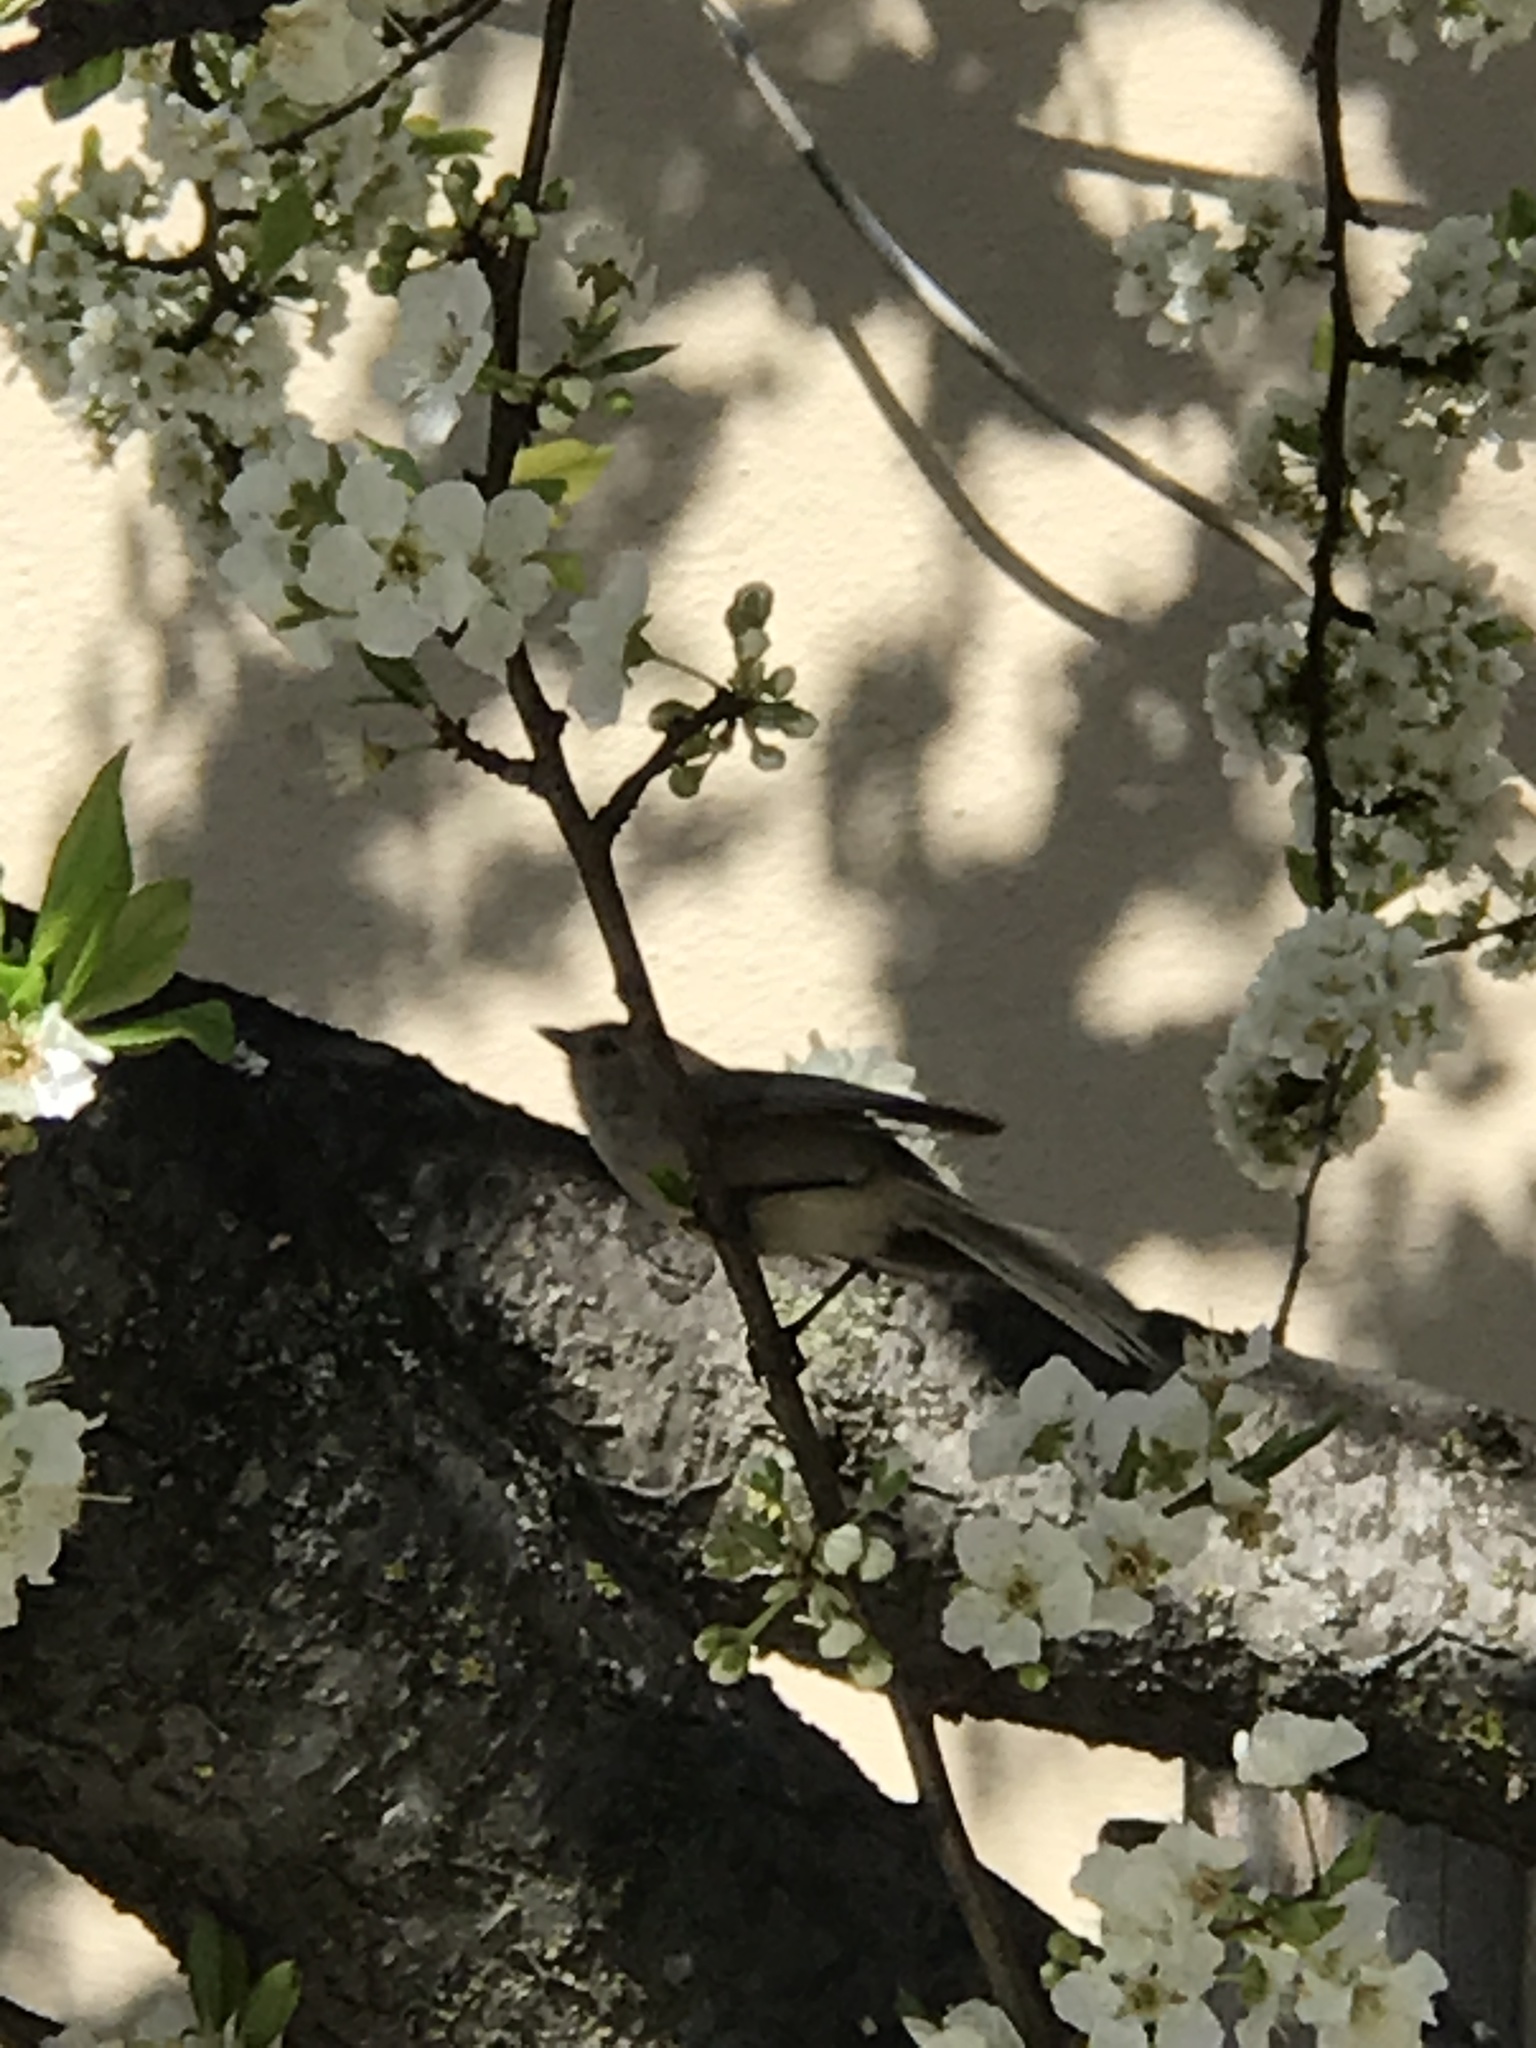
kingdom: Animalia
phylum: Chordata
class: Aves
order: Passeriformes
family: Aegithalidae
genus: Psaltriparus
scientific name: Psaltriparus minimus
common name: American bushtit
